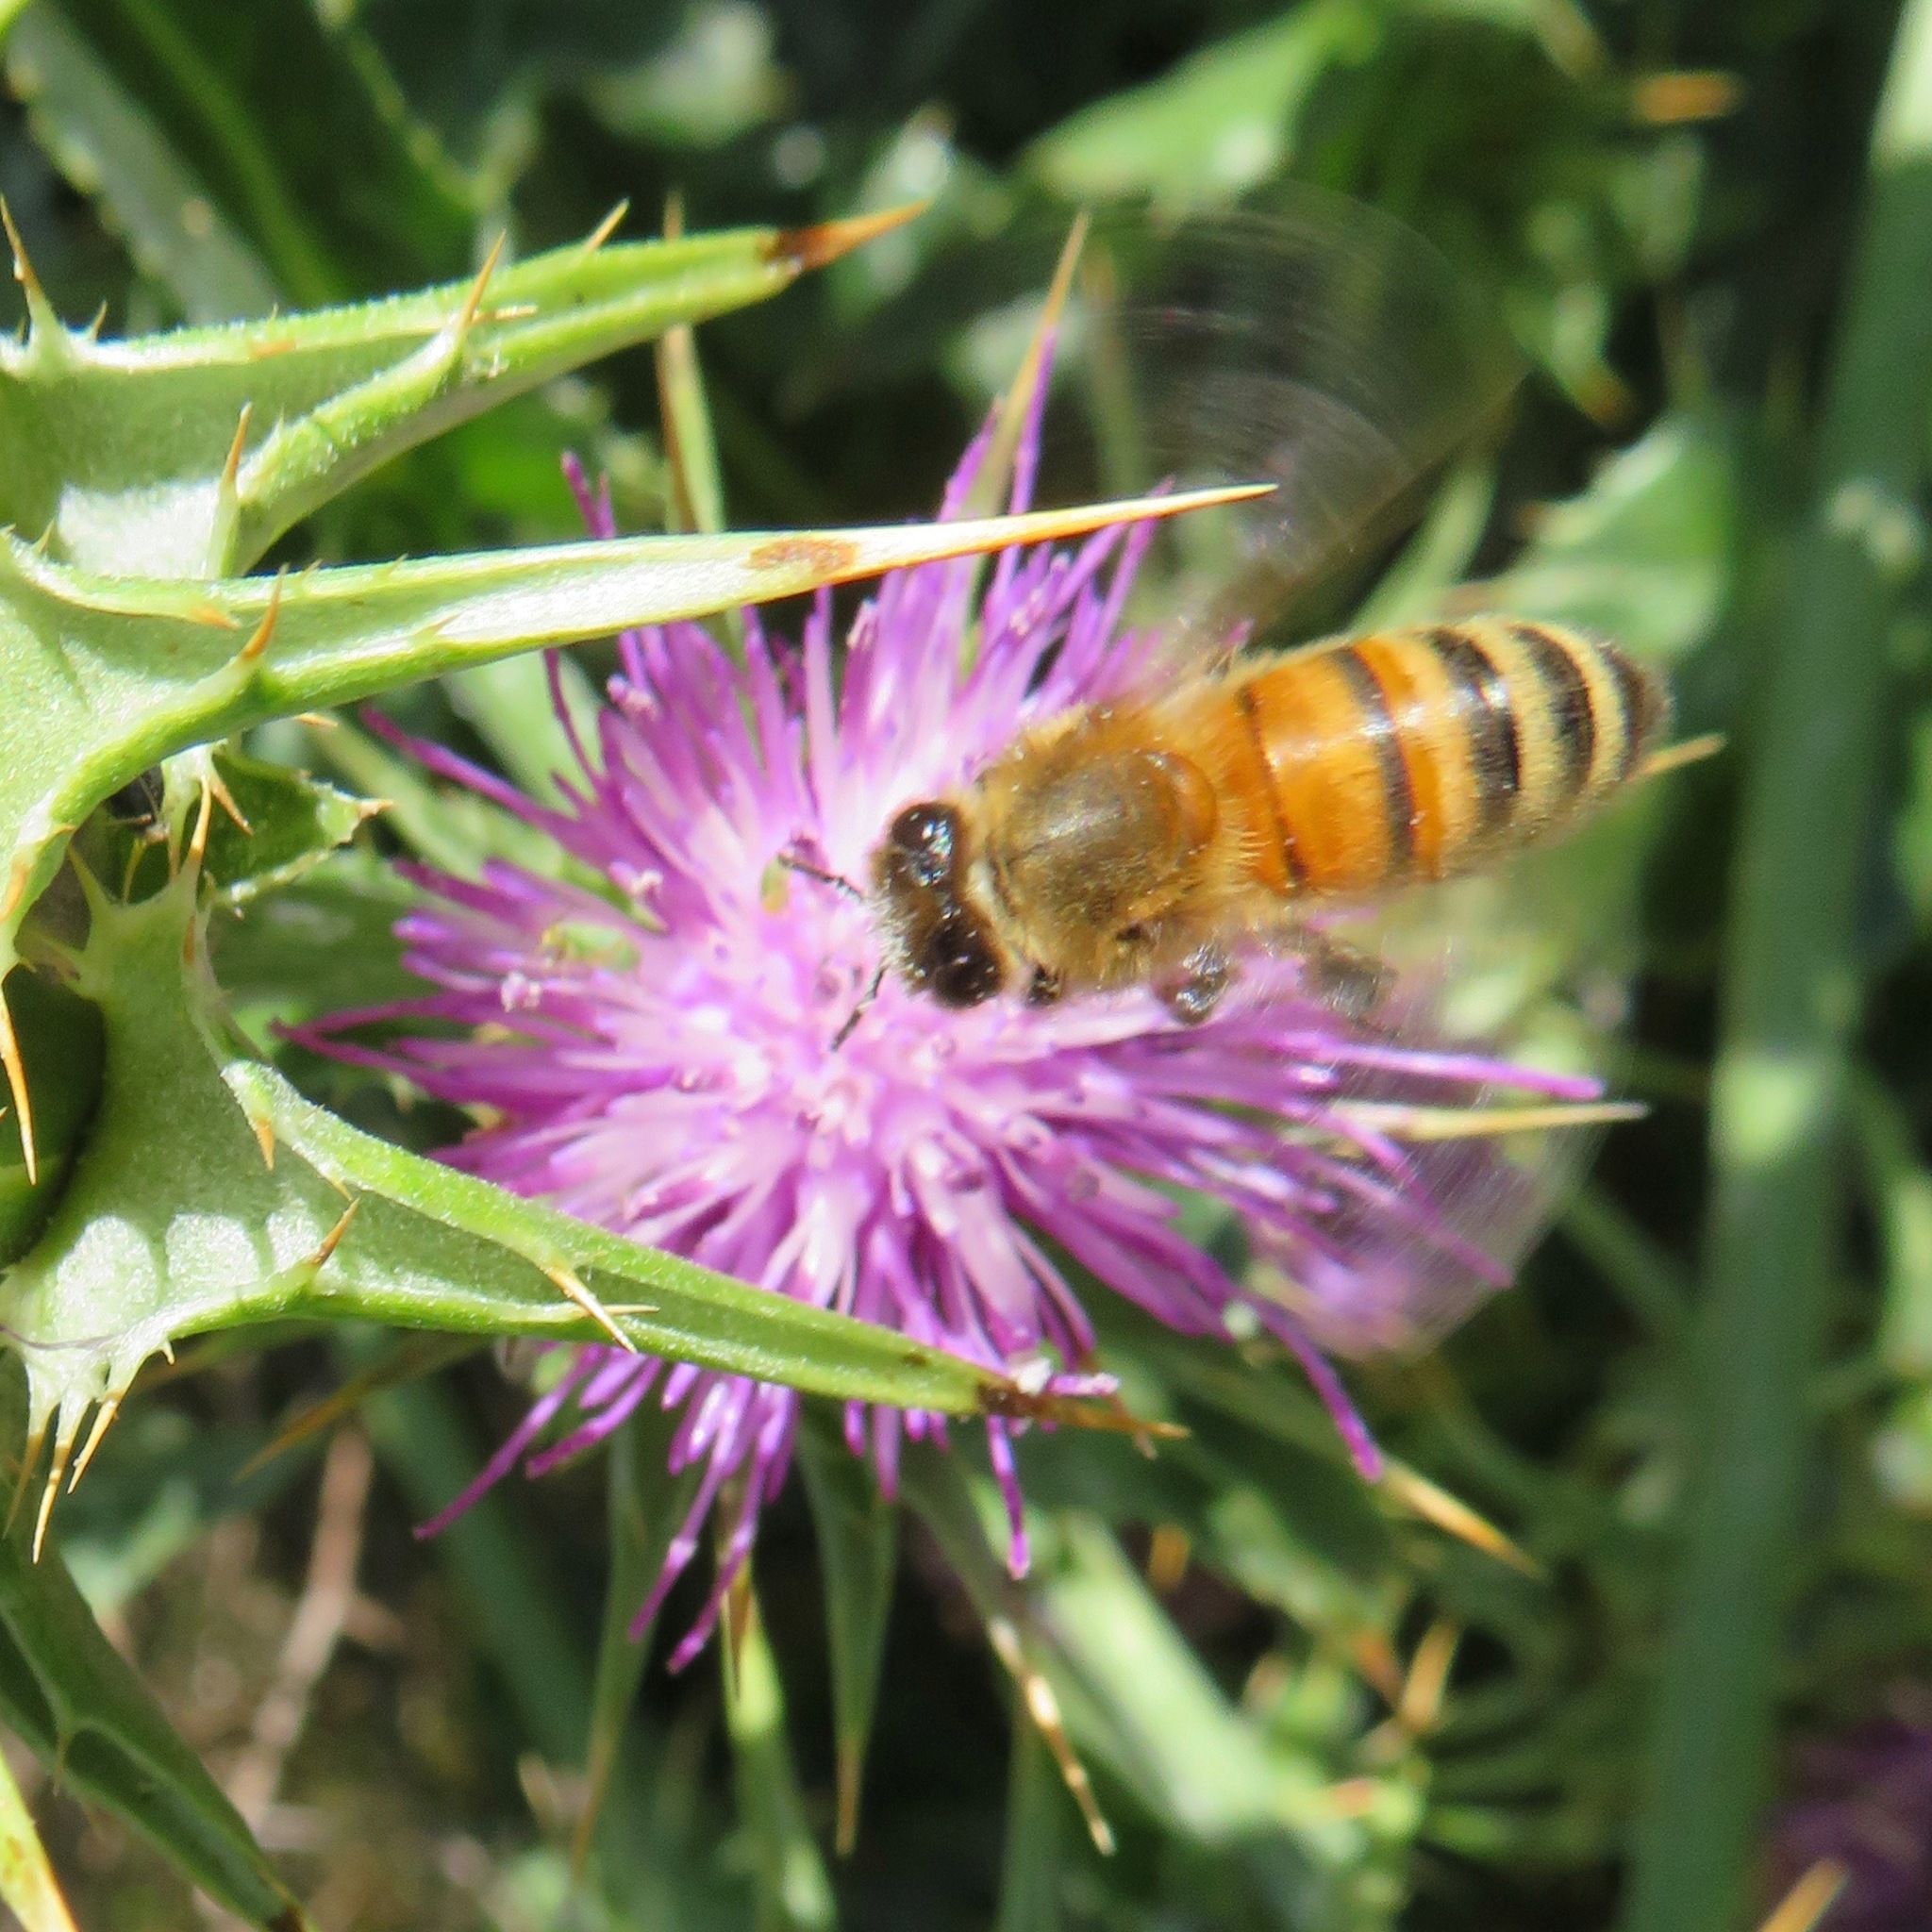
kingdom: Animalia
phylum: Arthropoda
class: Insecta
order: Hymenoptera
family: Apidae
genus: Apis
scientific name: Apis mellifera
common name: Honey bee
